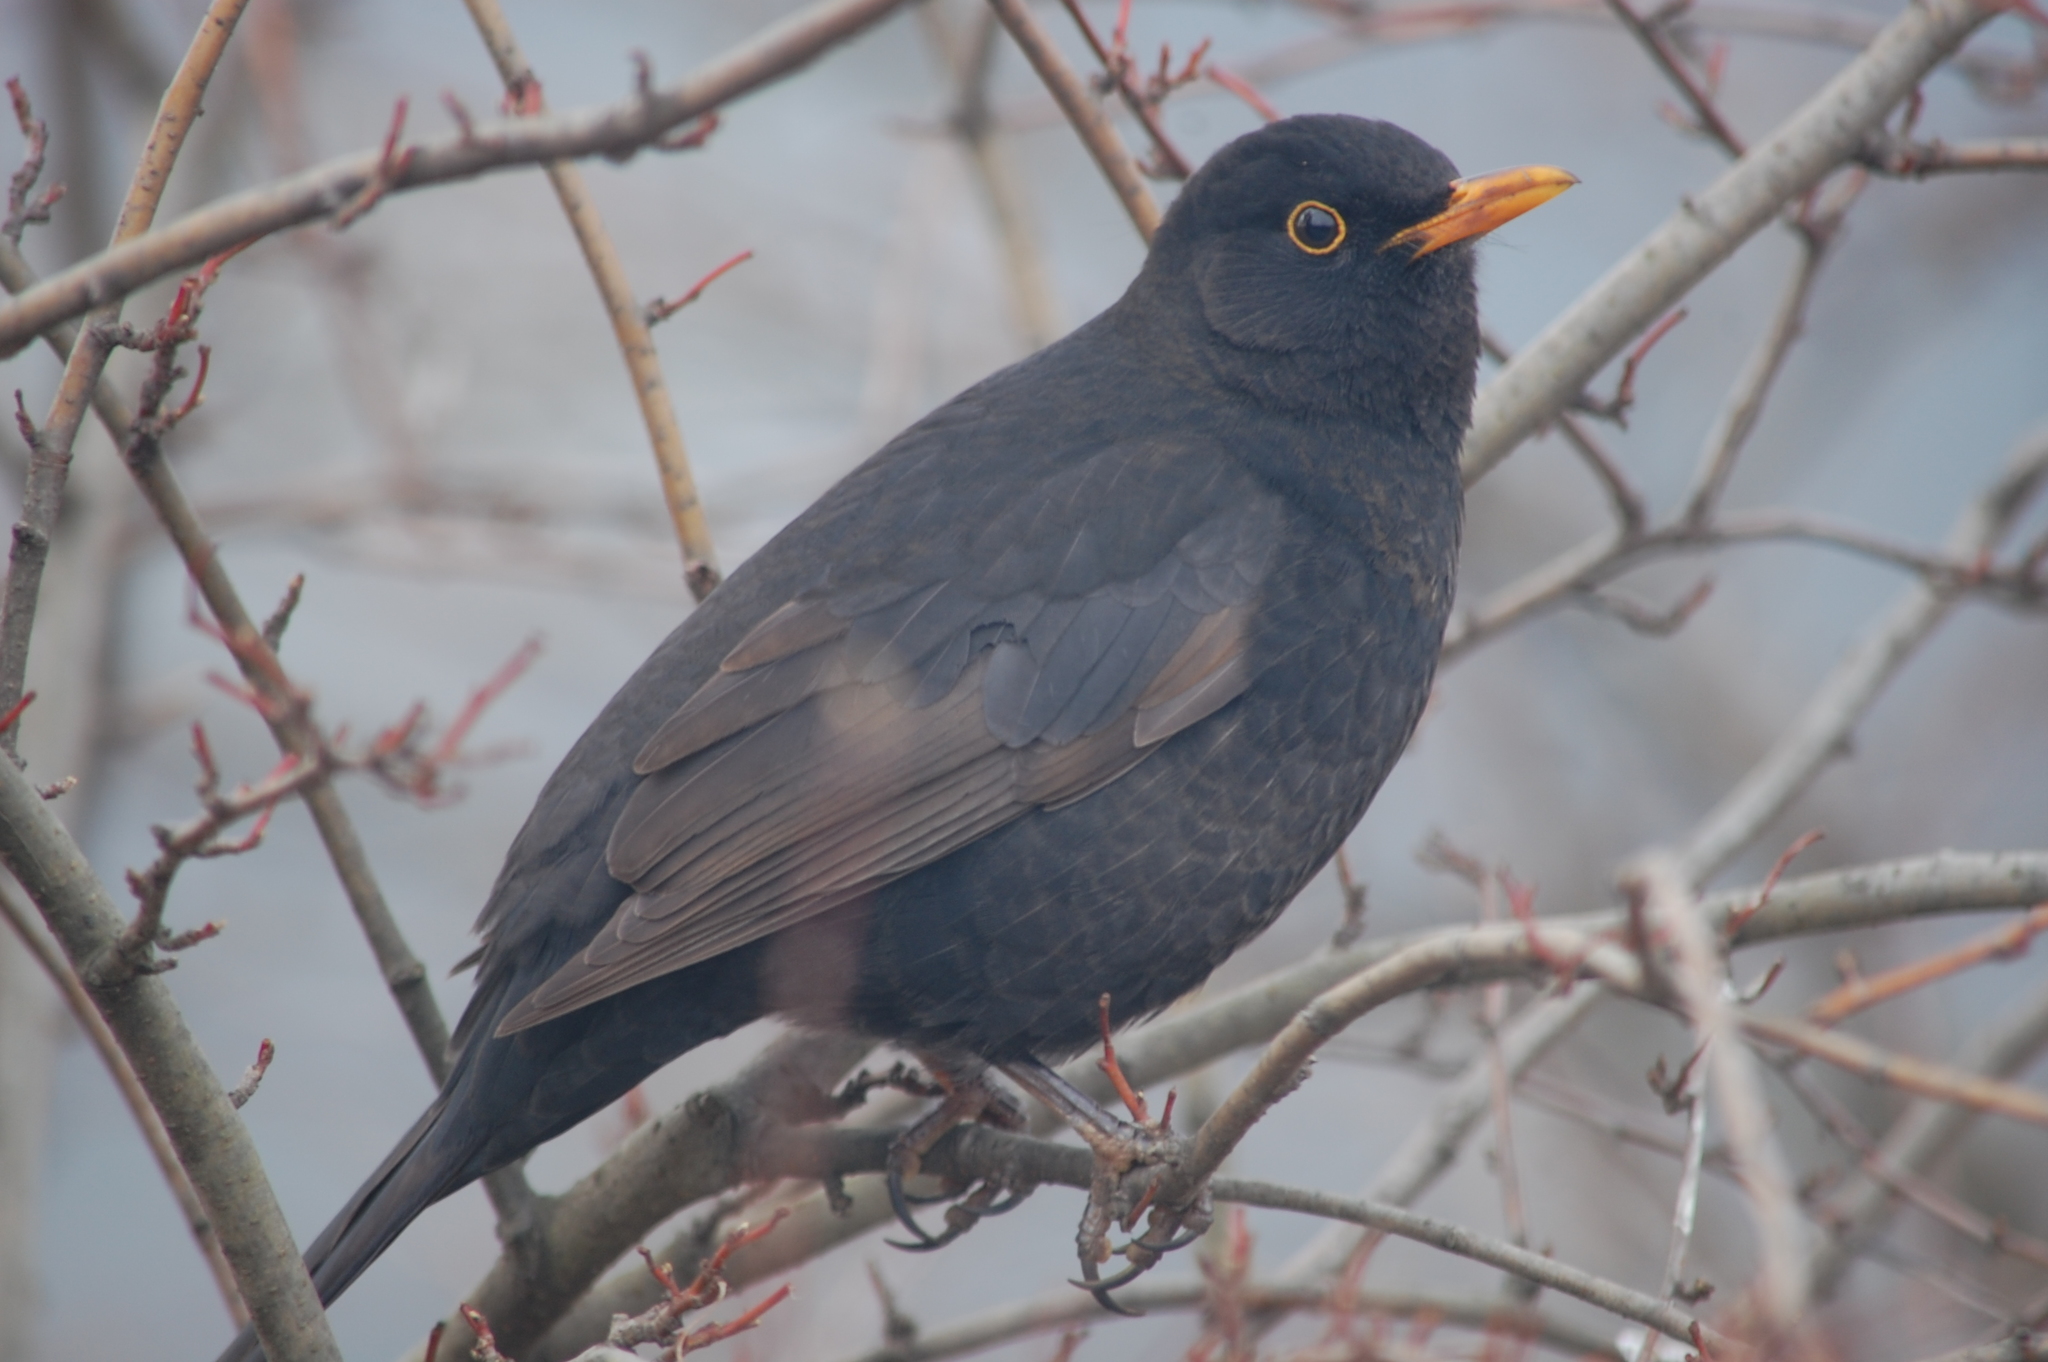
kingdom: Animalia
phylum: Chordata
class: Aves
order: Passeriformes
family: Turdidae
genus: Turdus
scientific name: Turdus merula
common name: Common blackbird
